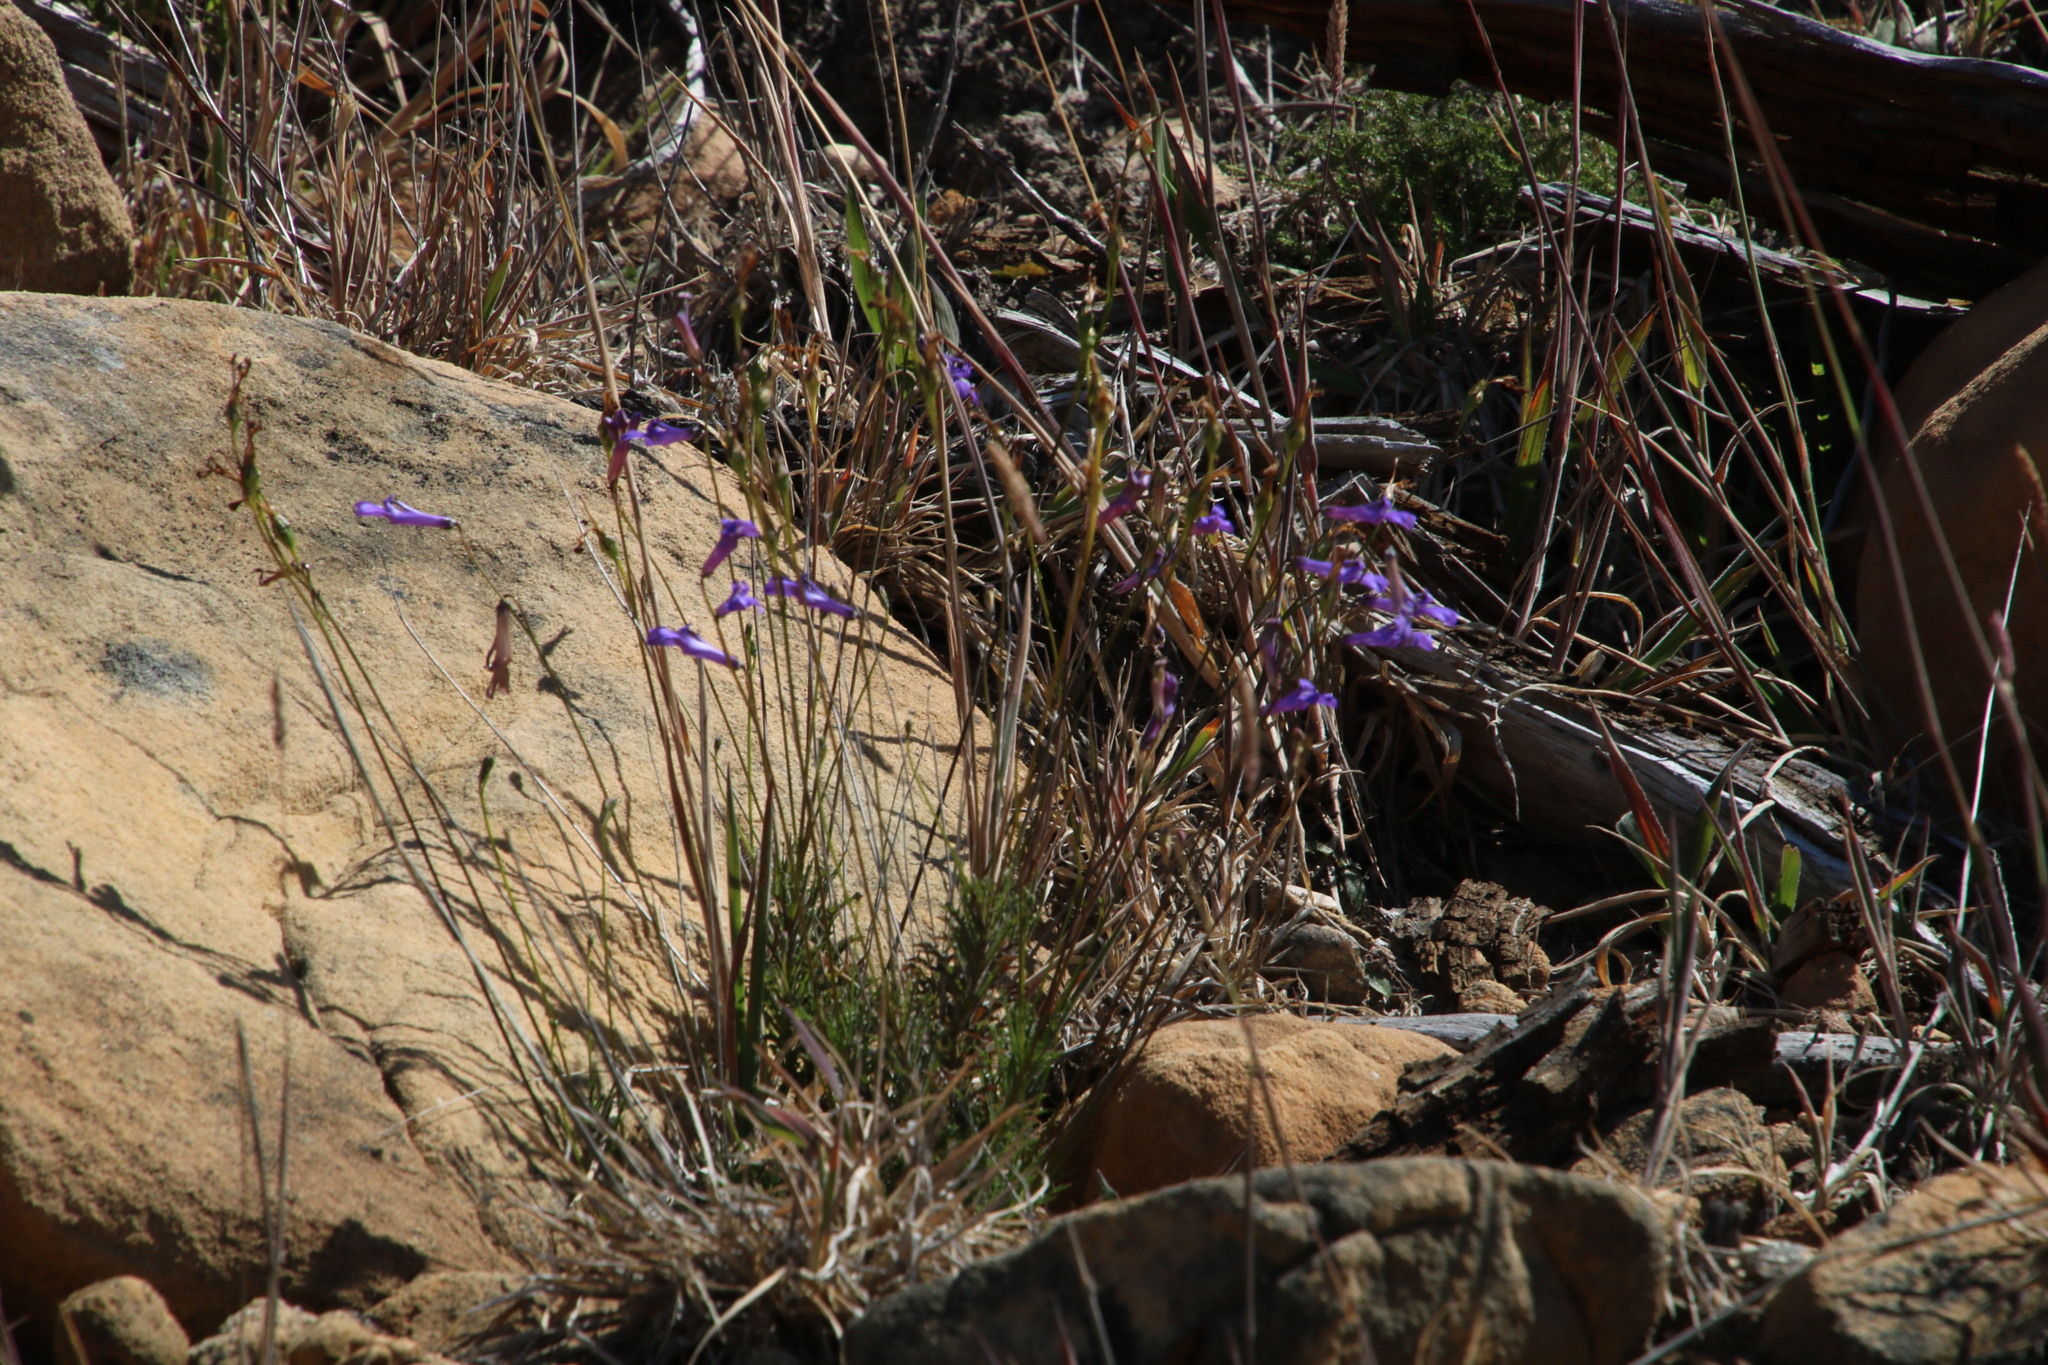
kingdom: Plantae
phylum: Tracheophyta
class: Magnoliopsida
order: Asterales
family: Campanulaceae
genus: Lobelia
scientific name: Lobelia coronopifolia
